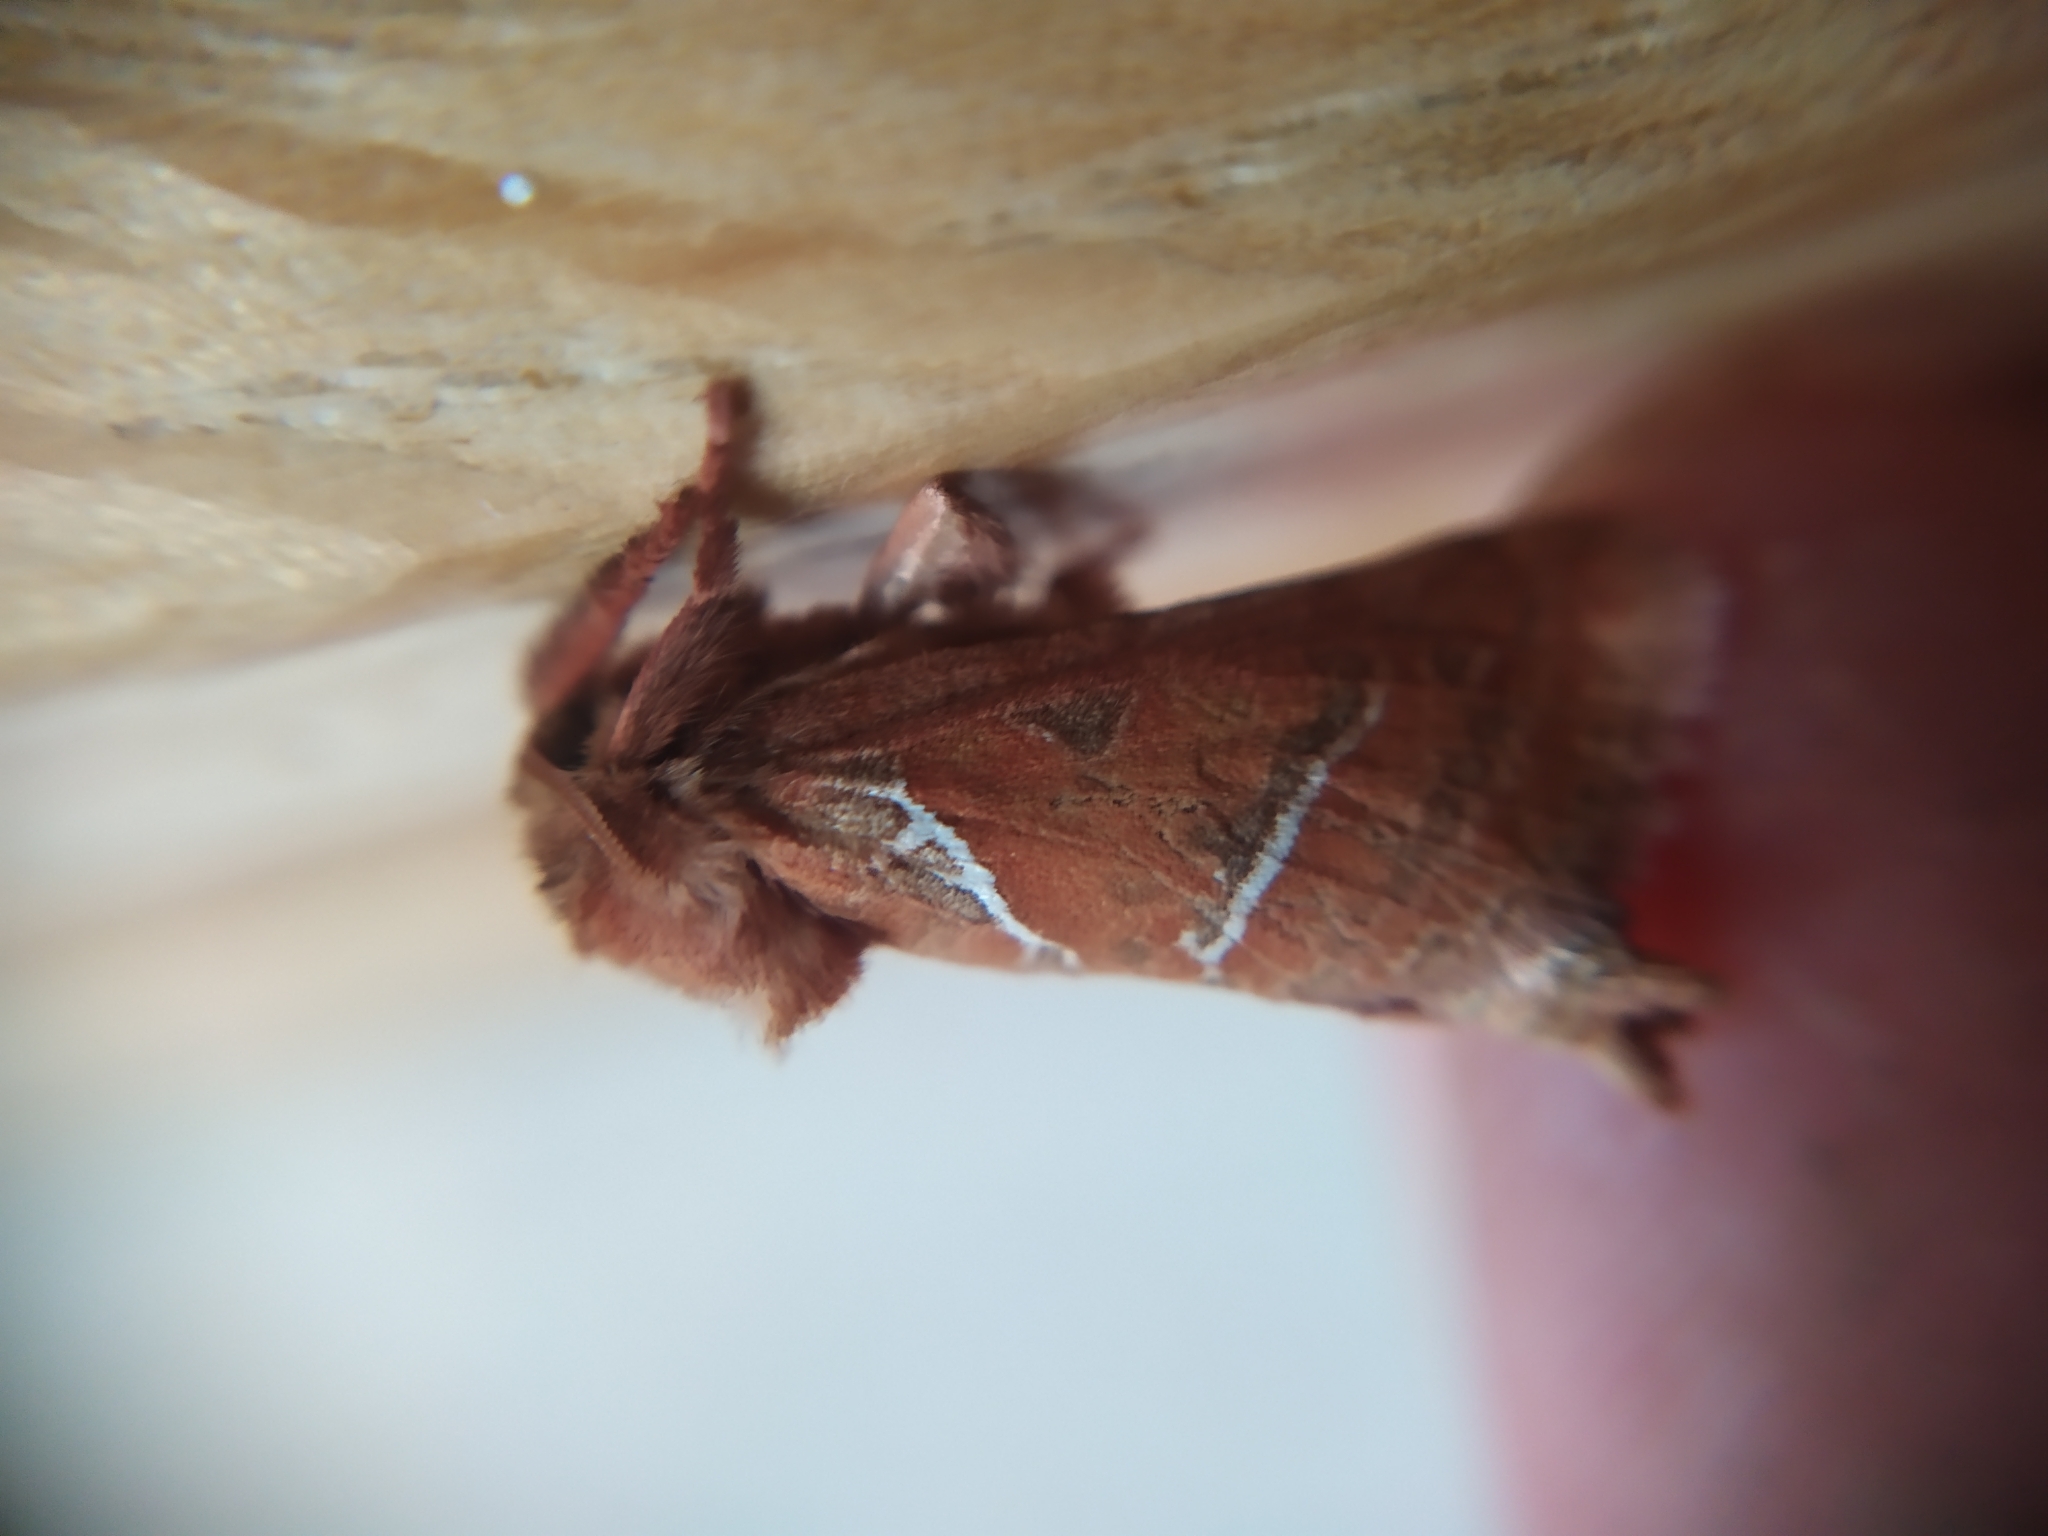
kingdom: Animalia
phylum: Arthropoda
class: Insecta
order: Lepidoptera
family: Hepialidae
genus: Triodia
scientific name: Triodia sylvina
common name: Orange swift
